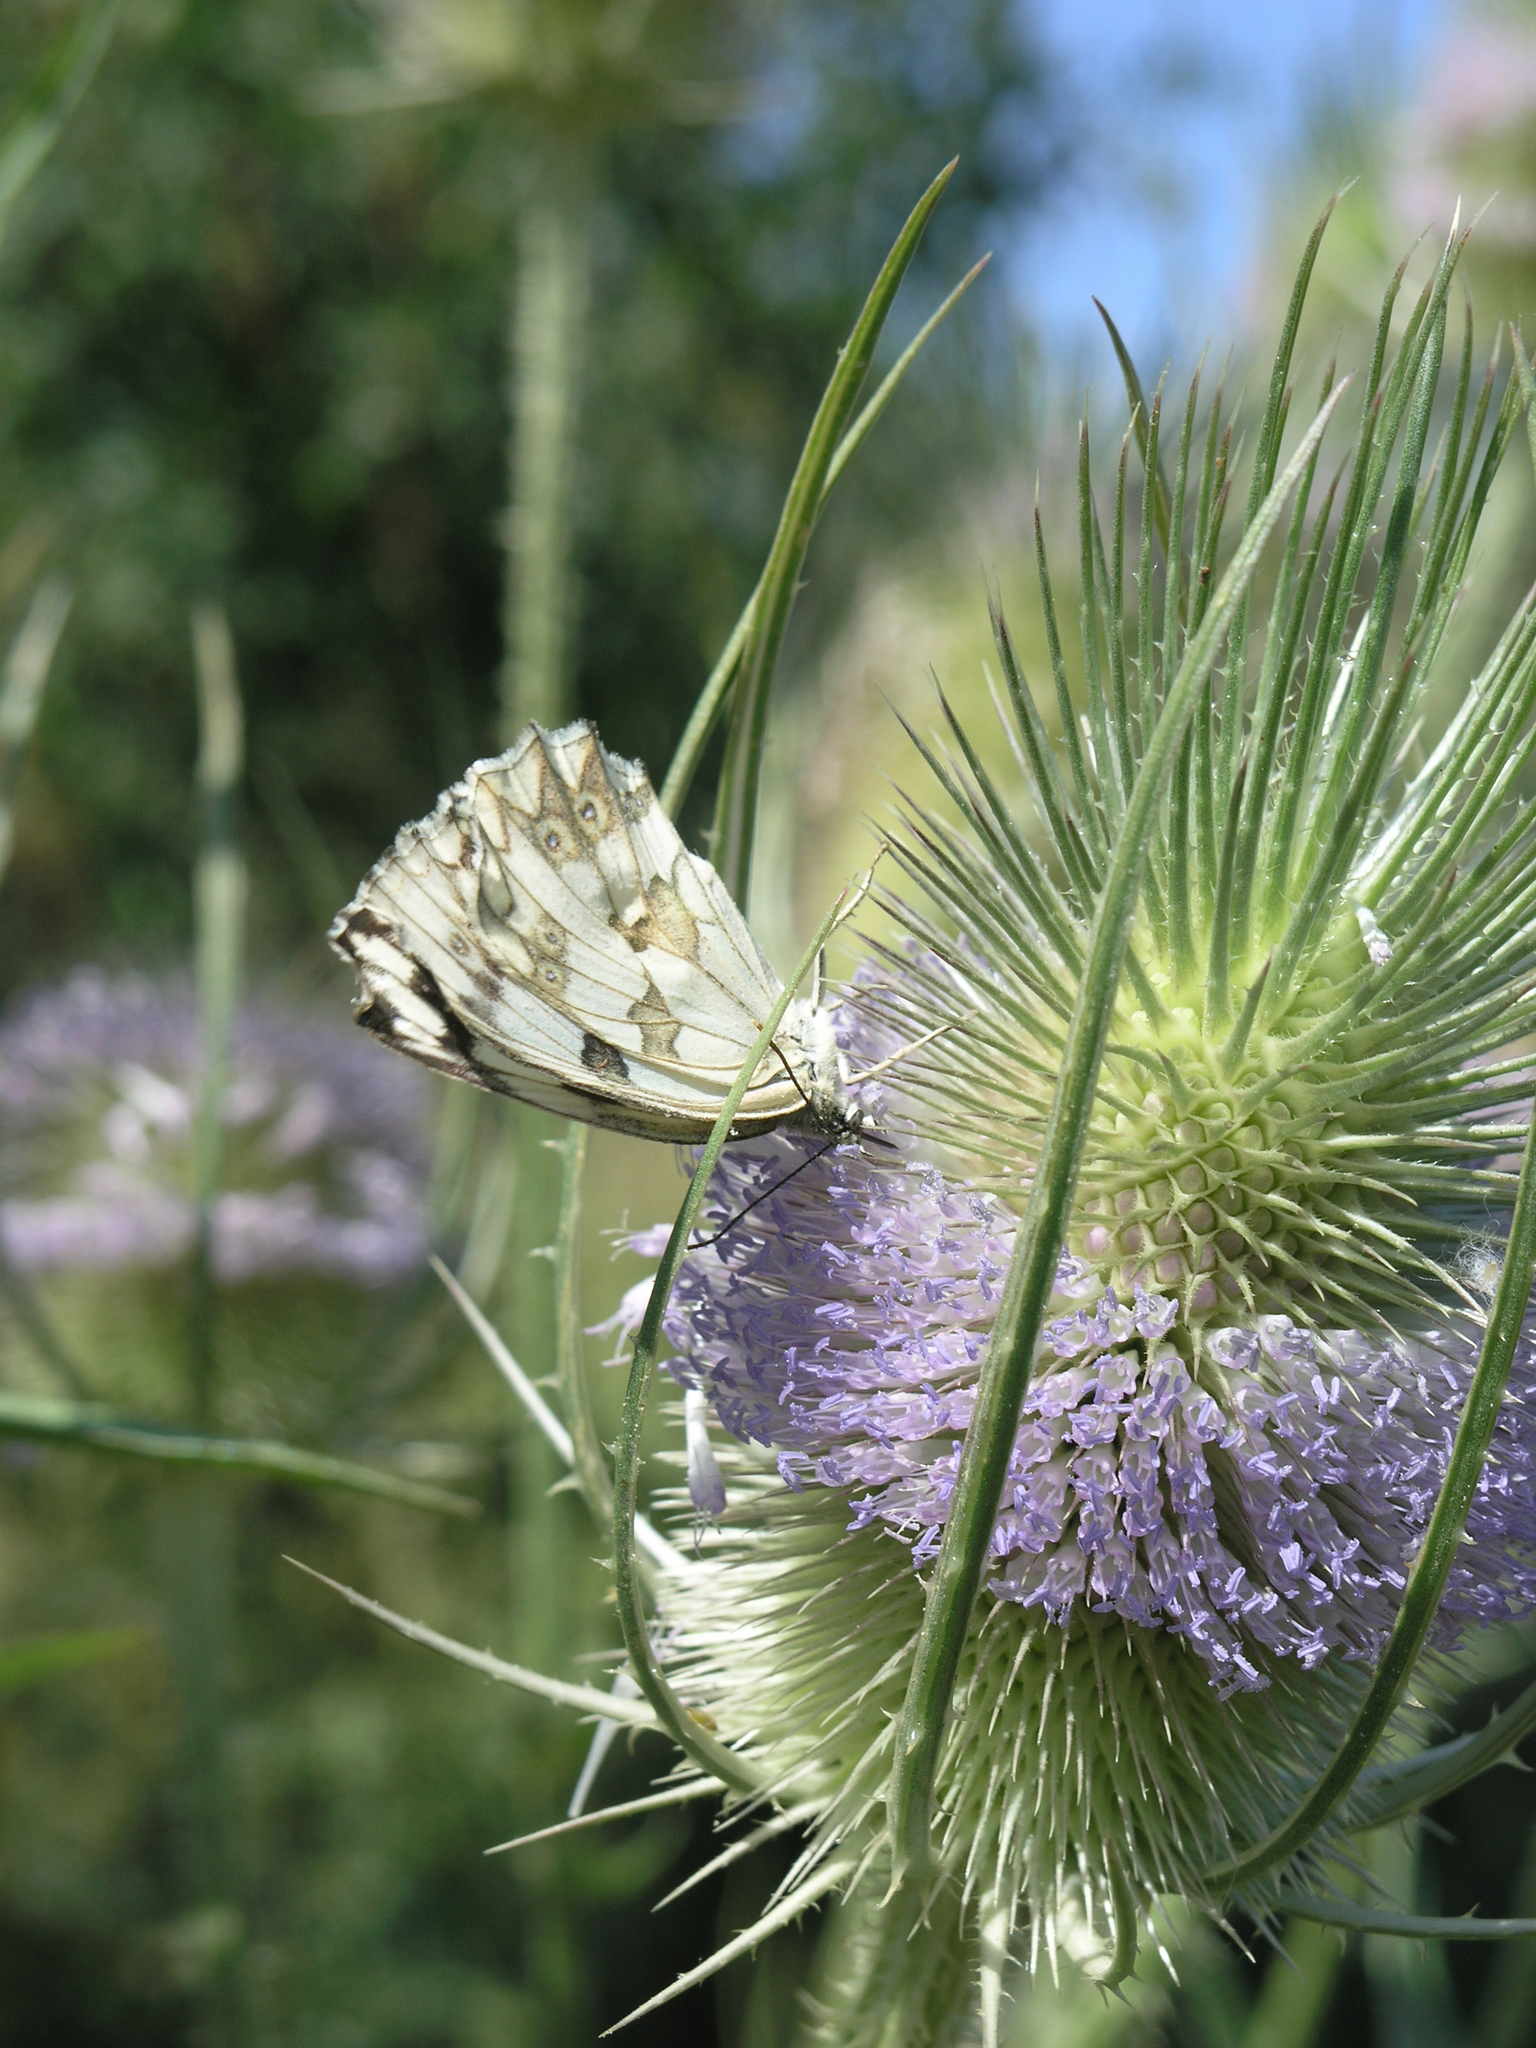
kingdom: Plantae
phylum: Tracheophyta
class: Magnoliopsida
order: Dipsacales
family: Caprifoliaceae
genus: Dipsacus
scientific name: Dipsacus fullonum
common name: Teasel
